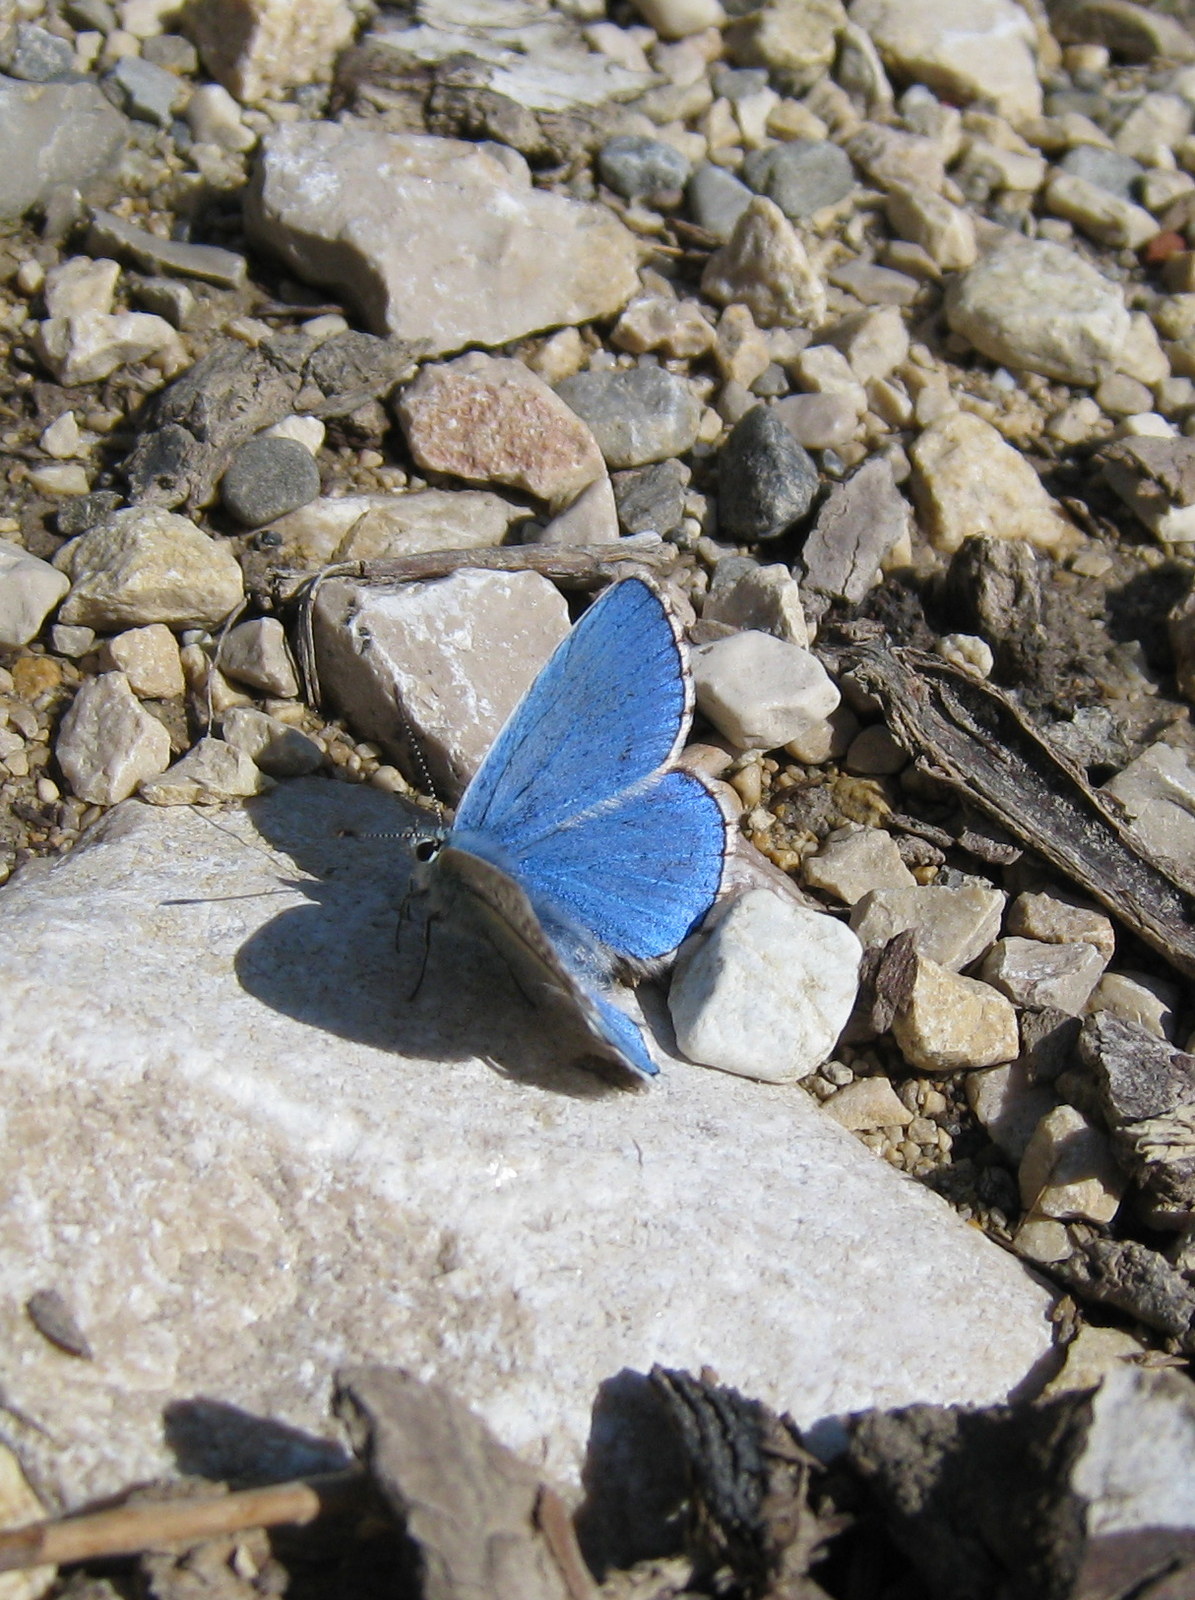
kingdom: Animalia
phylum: Arthropoda
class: Insecta
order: Lepidoptera
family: Lycaenidae
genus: Lysandra
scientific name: Lysandra bellargus
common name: Adonis blue
